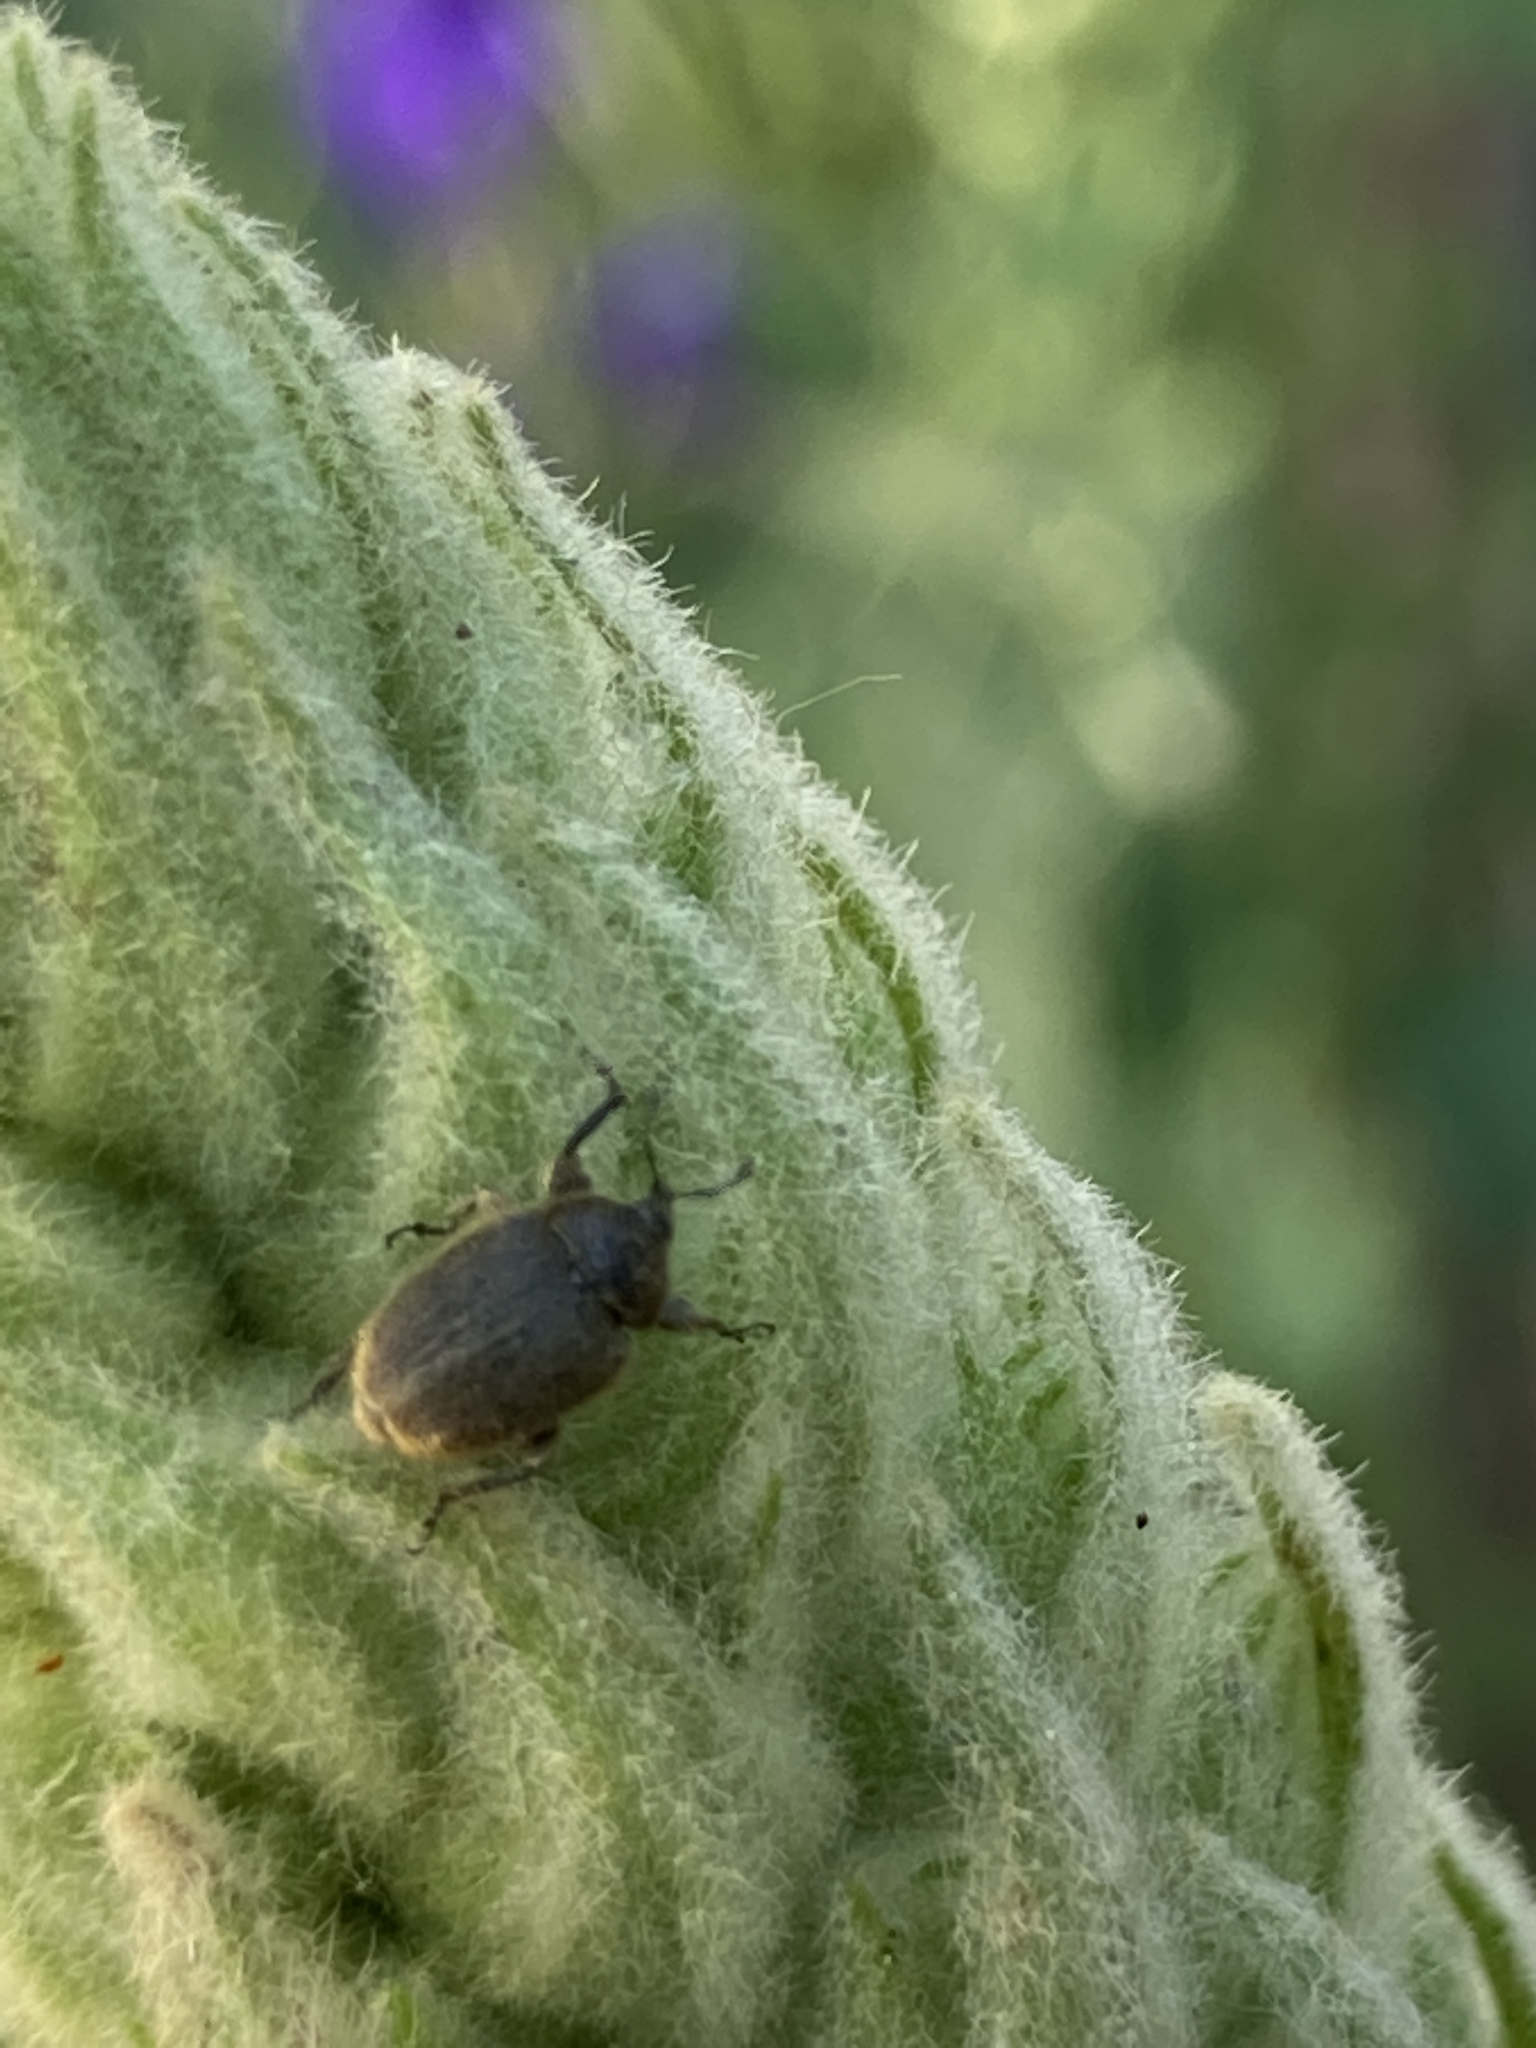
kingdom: Animalia
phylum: Arthropoda
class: Insecta
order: Coleoptera
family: Curculionidae
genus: Rhinusa
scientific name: Rhinusa tetra
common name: Weevil
